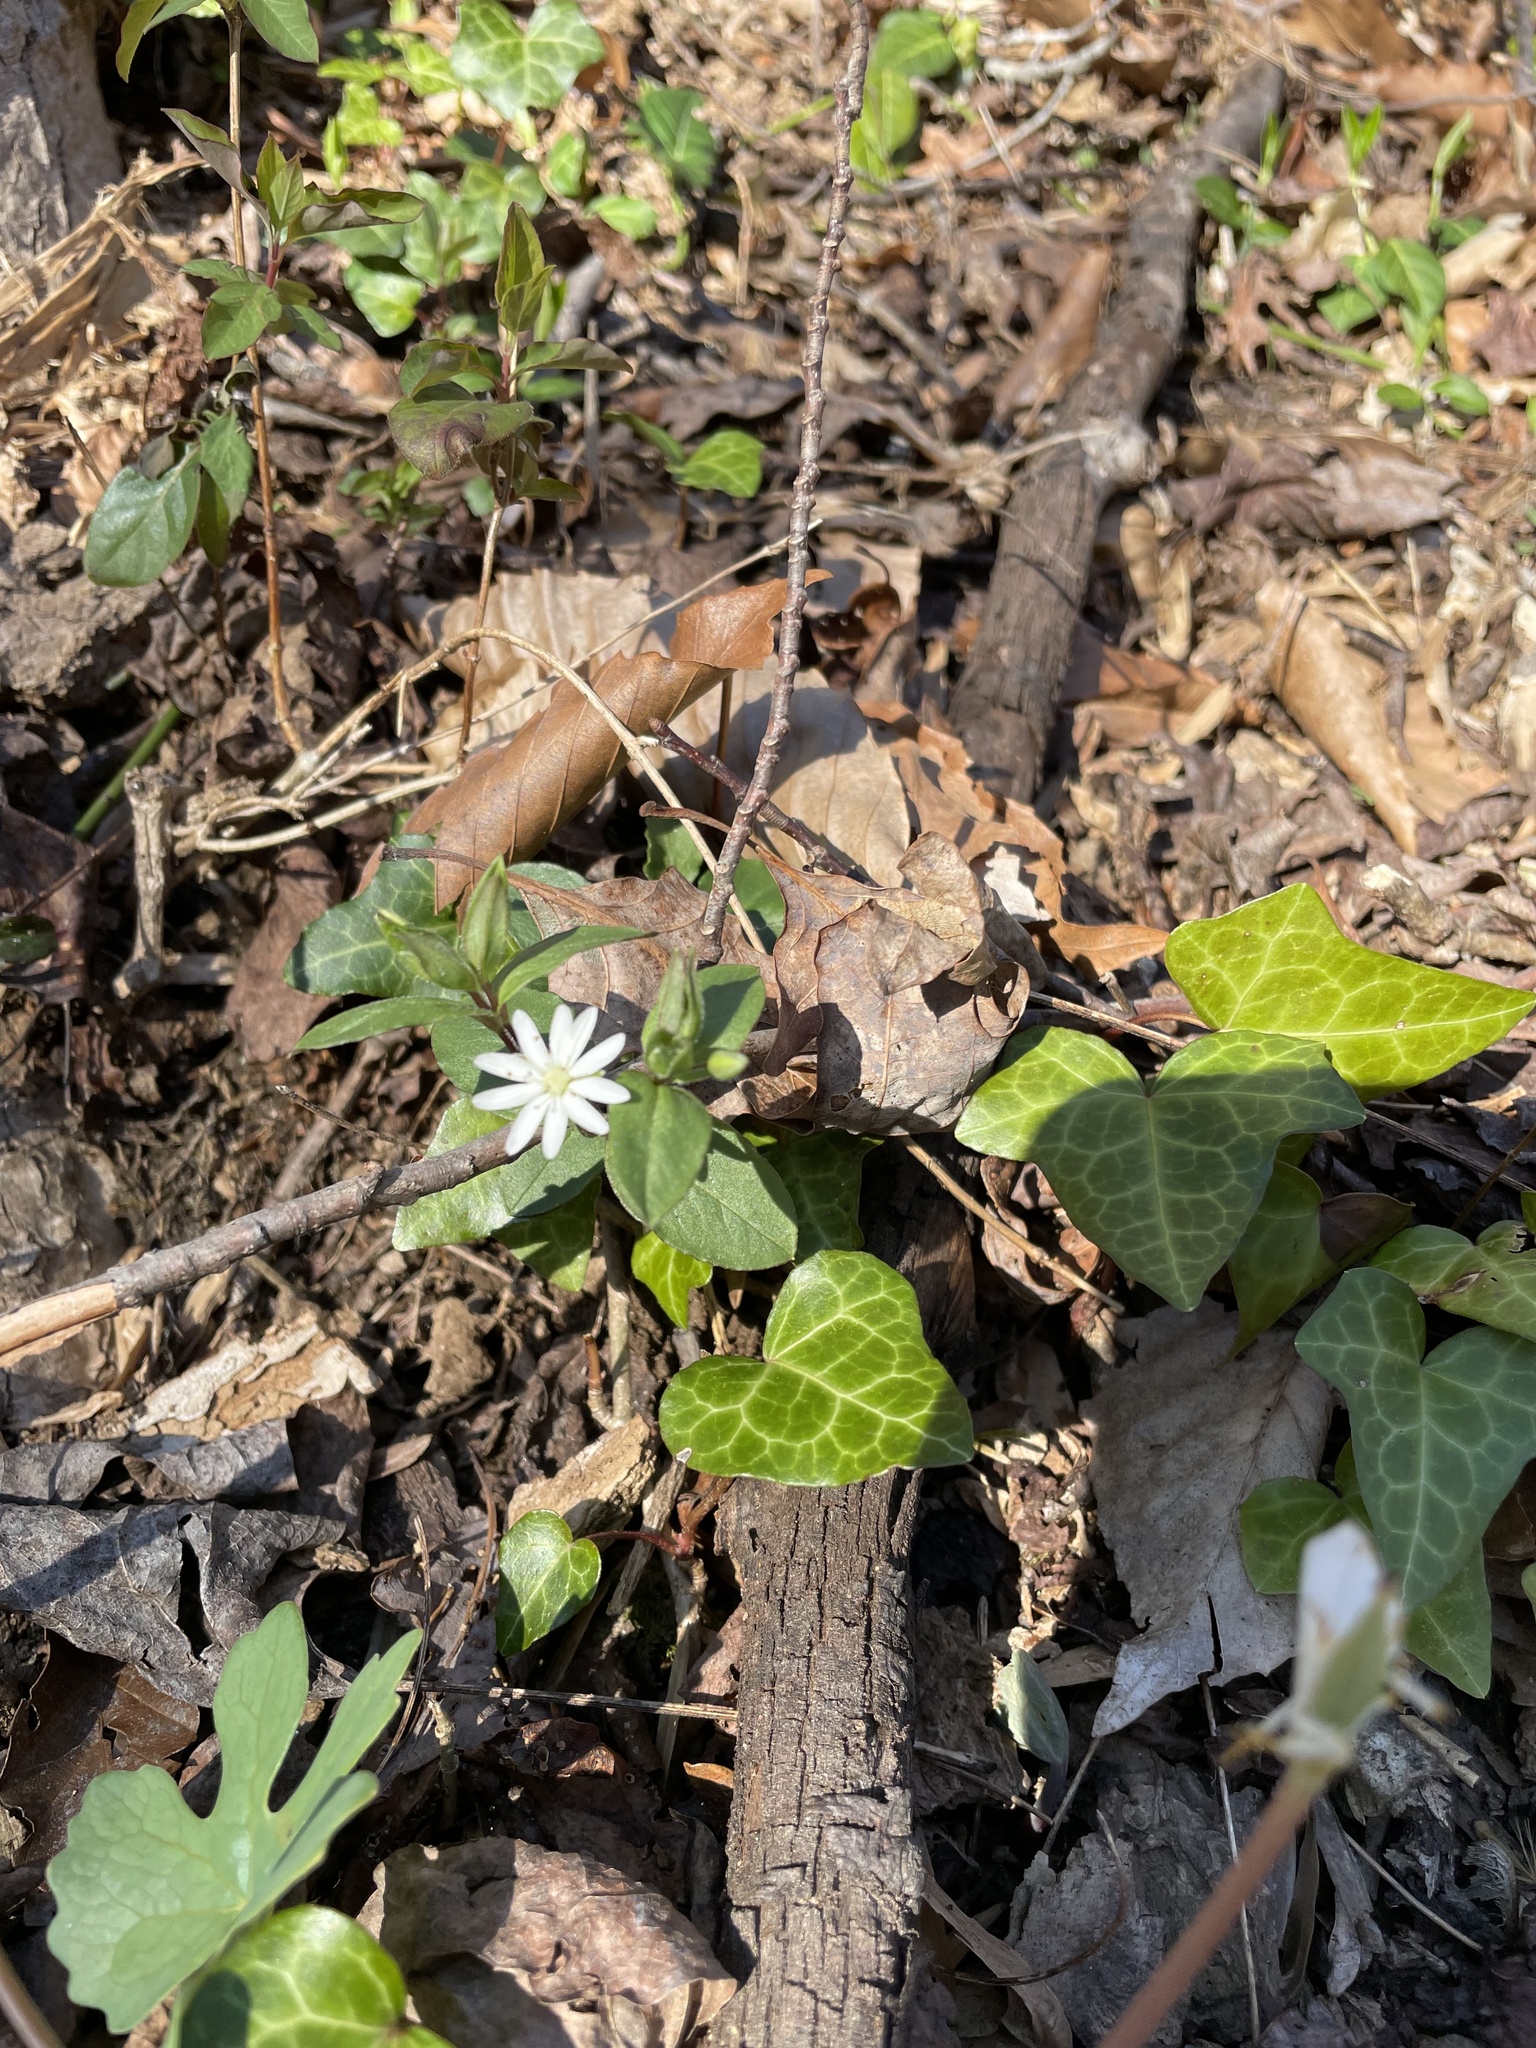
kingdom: Plantae
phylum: Tracheophyta
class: Magnoliopsida
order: Caryophyllales
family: Caryophyllaceae
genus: Stellaria
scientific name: Stellaria pubera
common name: Star chickweed
